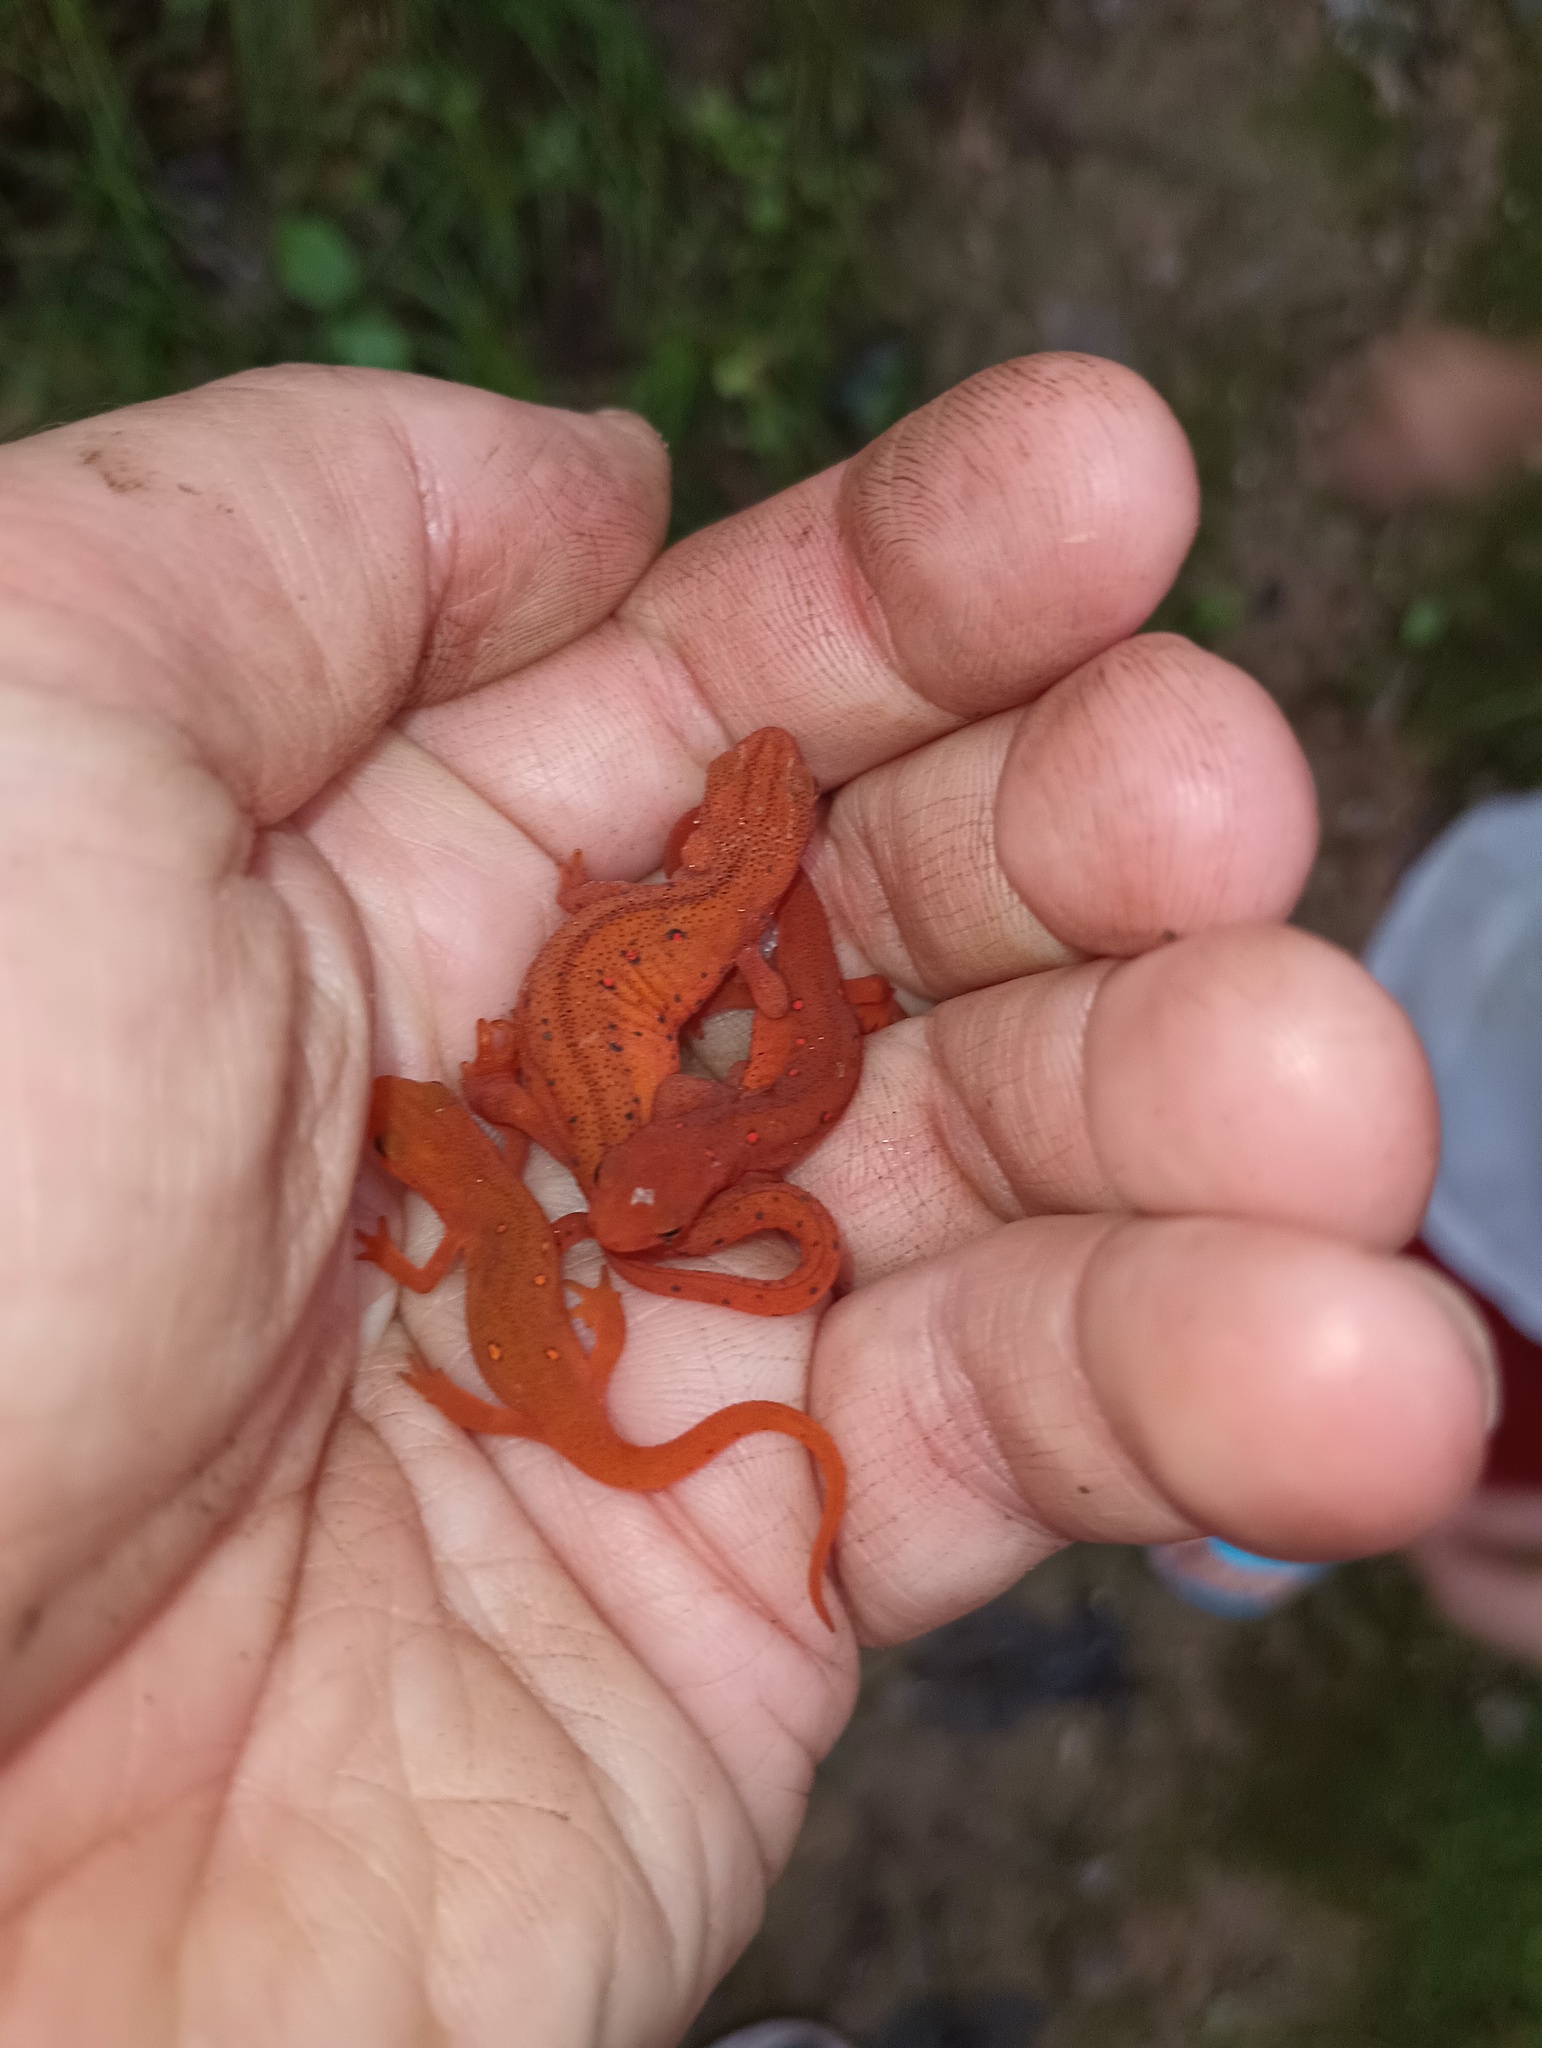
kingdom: Animalia
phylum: Chordata
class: Amphibia
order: Caudata
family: Salamandridae
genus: Notophthalmus
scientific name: Notophthalmus viridescens
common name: Eastern newt
